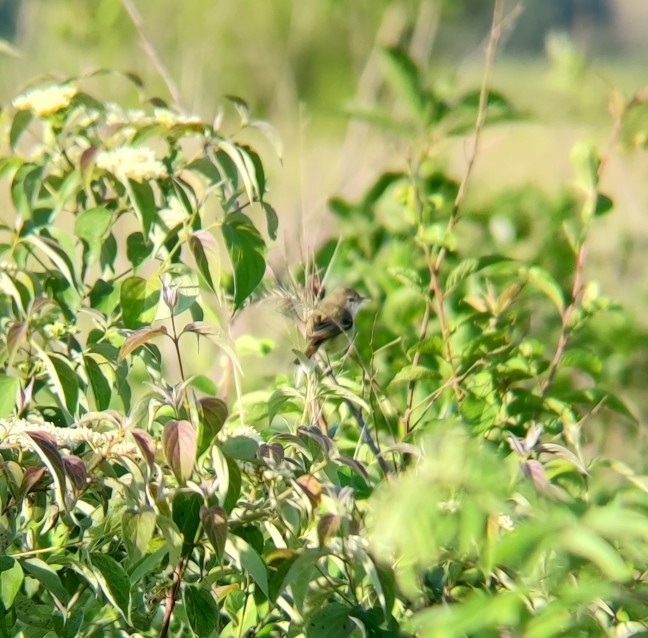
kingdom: Animalia
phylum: Chordata
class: Aves
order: Passeriformes
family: Vireonidae
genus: Vireo
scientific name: Vireo bellii
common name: Bell's vireo
